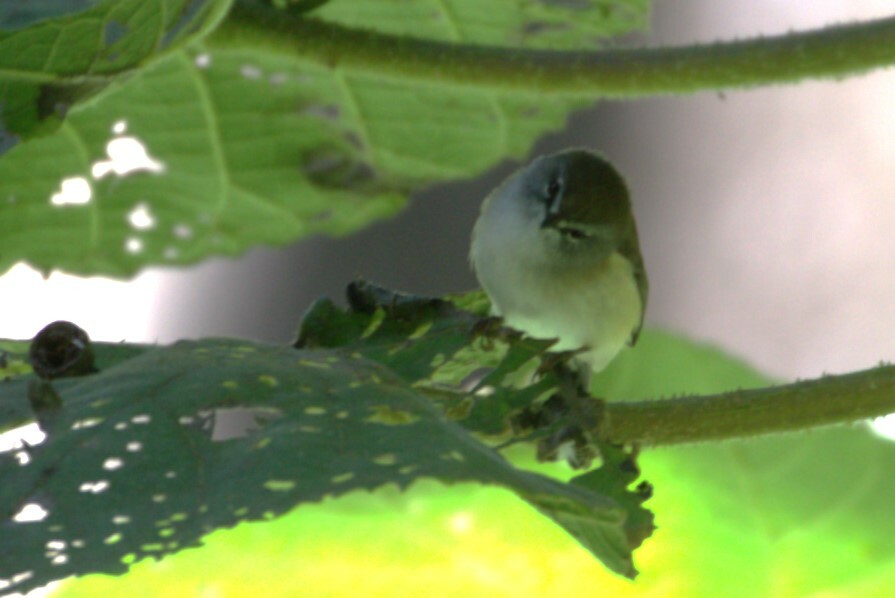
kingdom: Animalia
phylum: Chordata
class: Aves
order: Passeriformes
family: Acanthizidae
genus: Gerygone
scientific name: Gerygone mouki
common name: Brown gerygone
